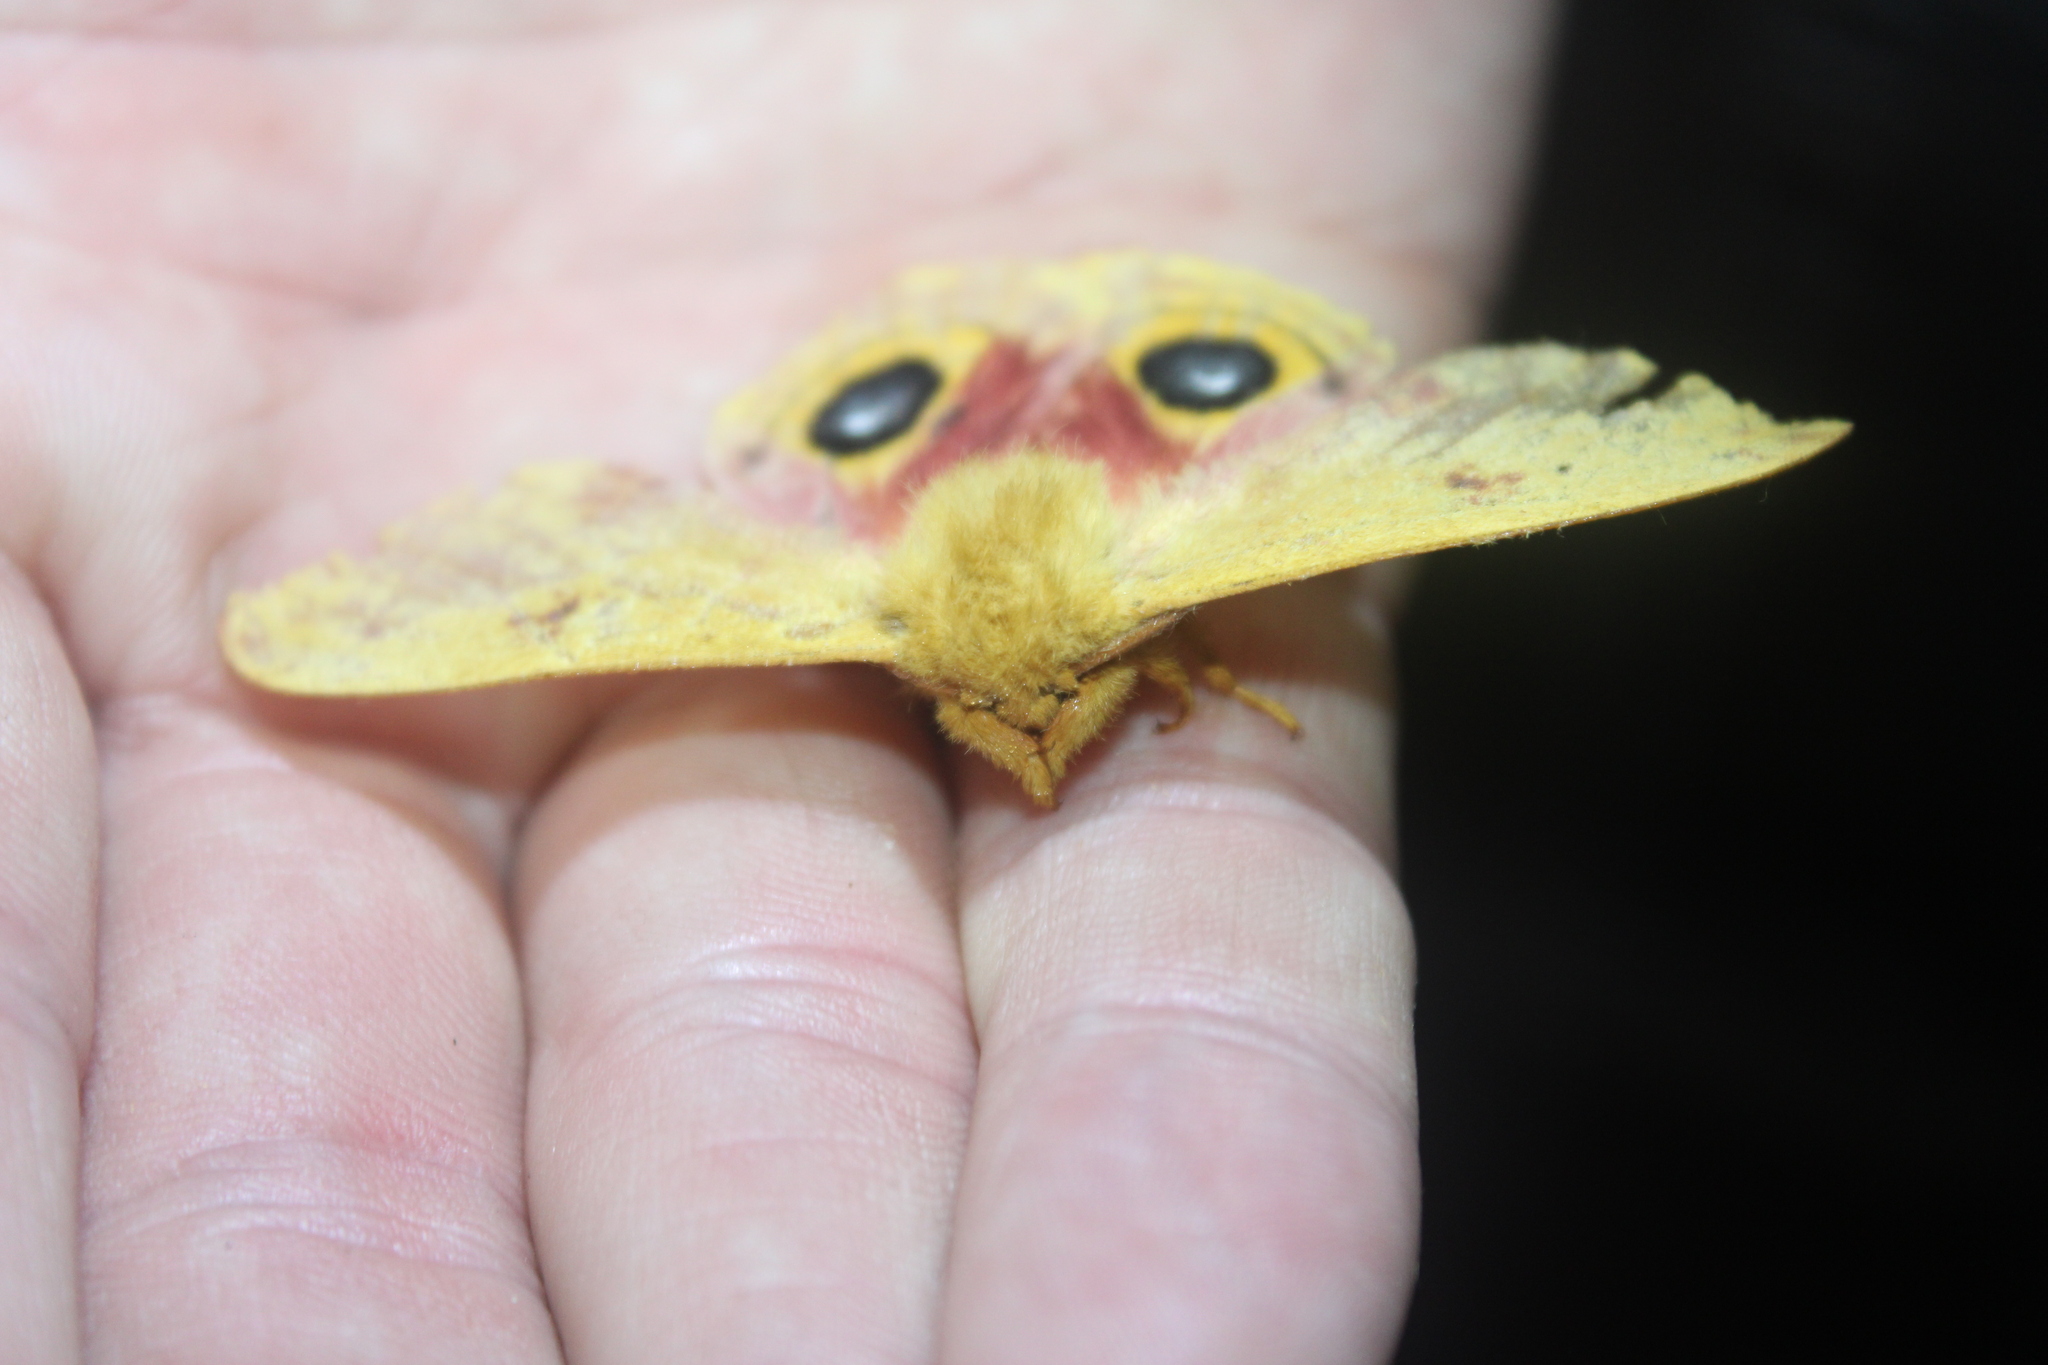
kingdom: Animalia
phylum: Arthropoda
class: Insecta
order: Lepidoptera
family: Saturniidae
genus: Automeris
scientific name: Automeris io
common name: Io moth
